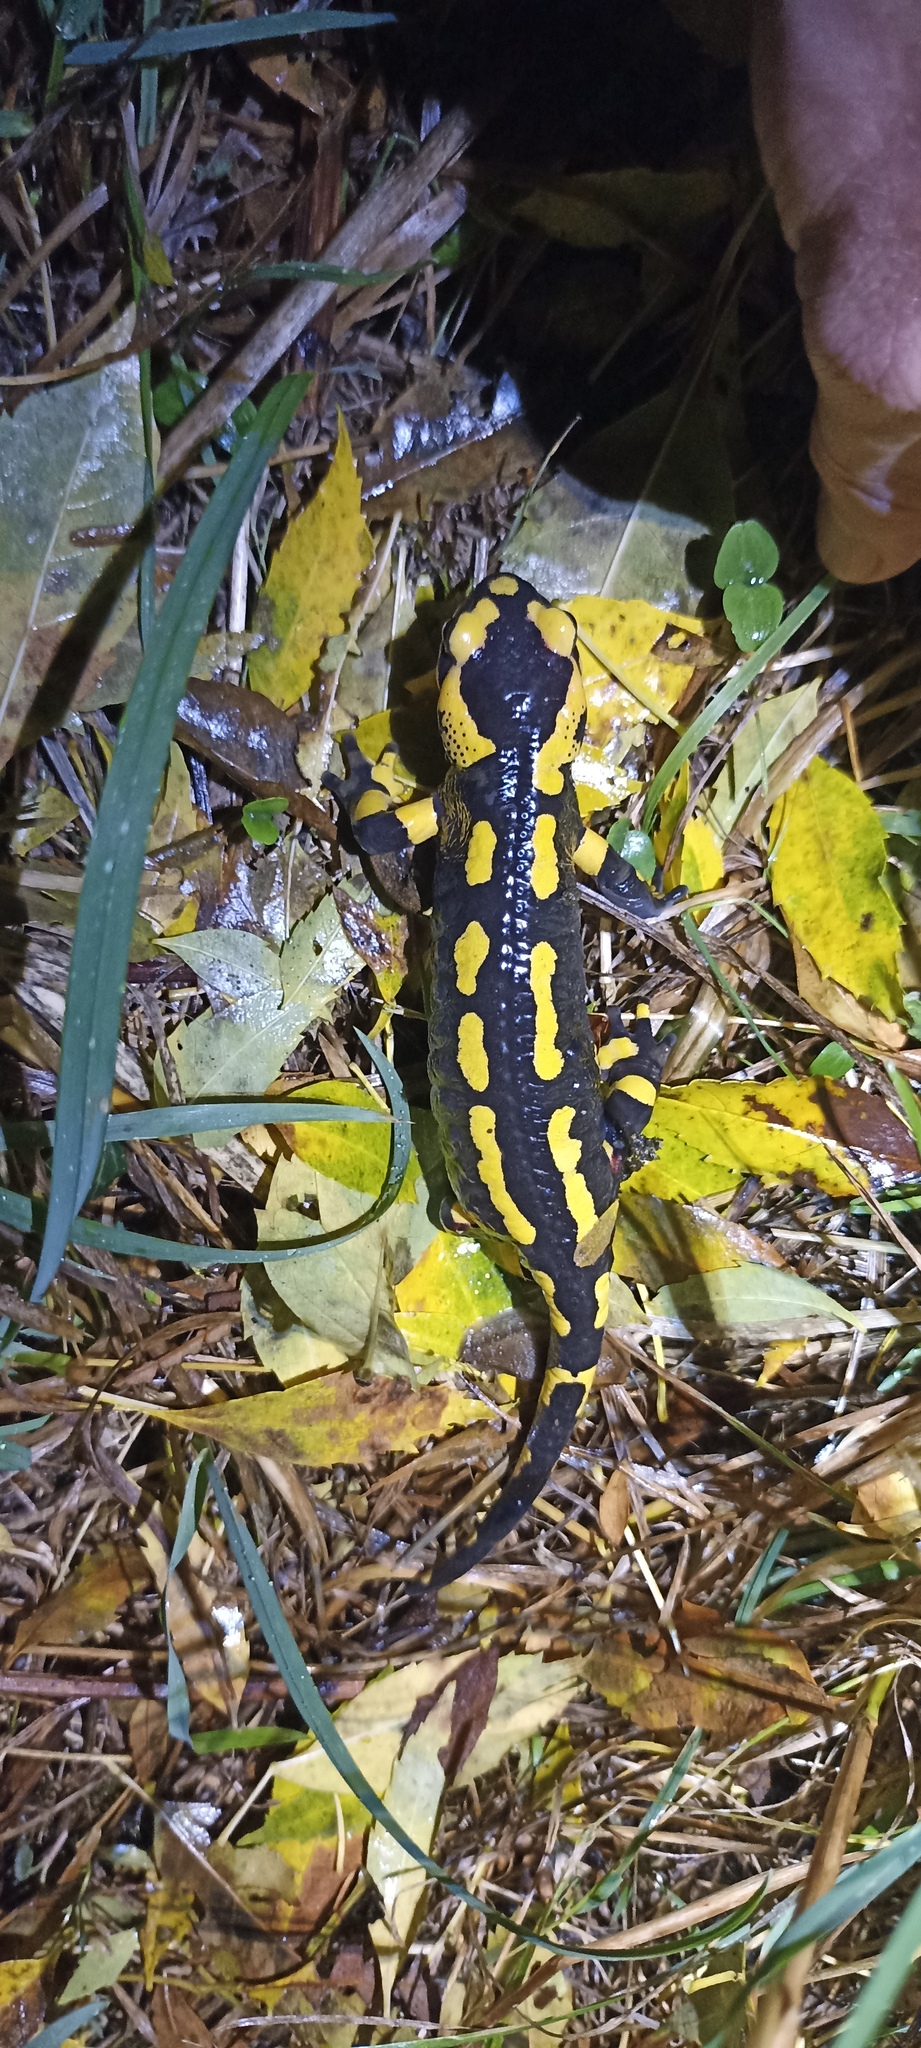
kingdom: Animalia
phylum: Chordata
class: Amphibia
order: Caudata
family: Salamandridae
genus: Salamandra
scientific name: Salamandra salamandra
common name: Fire salamander
